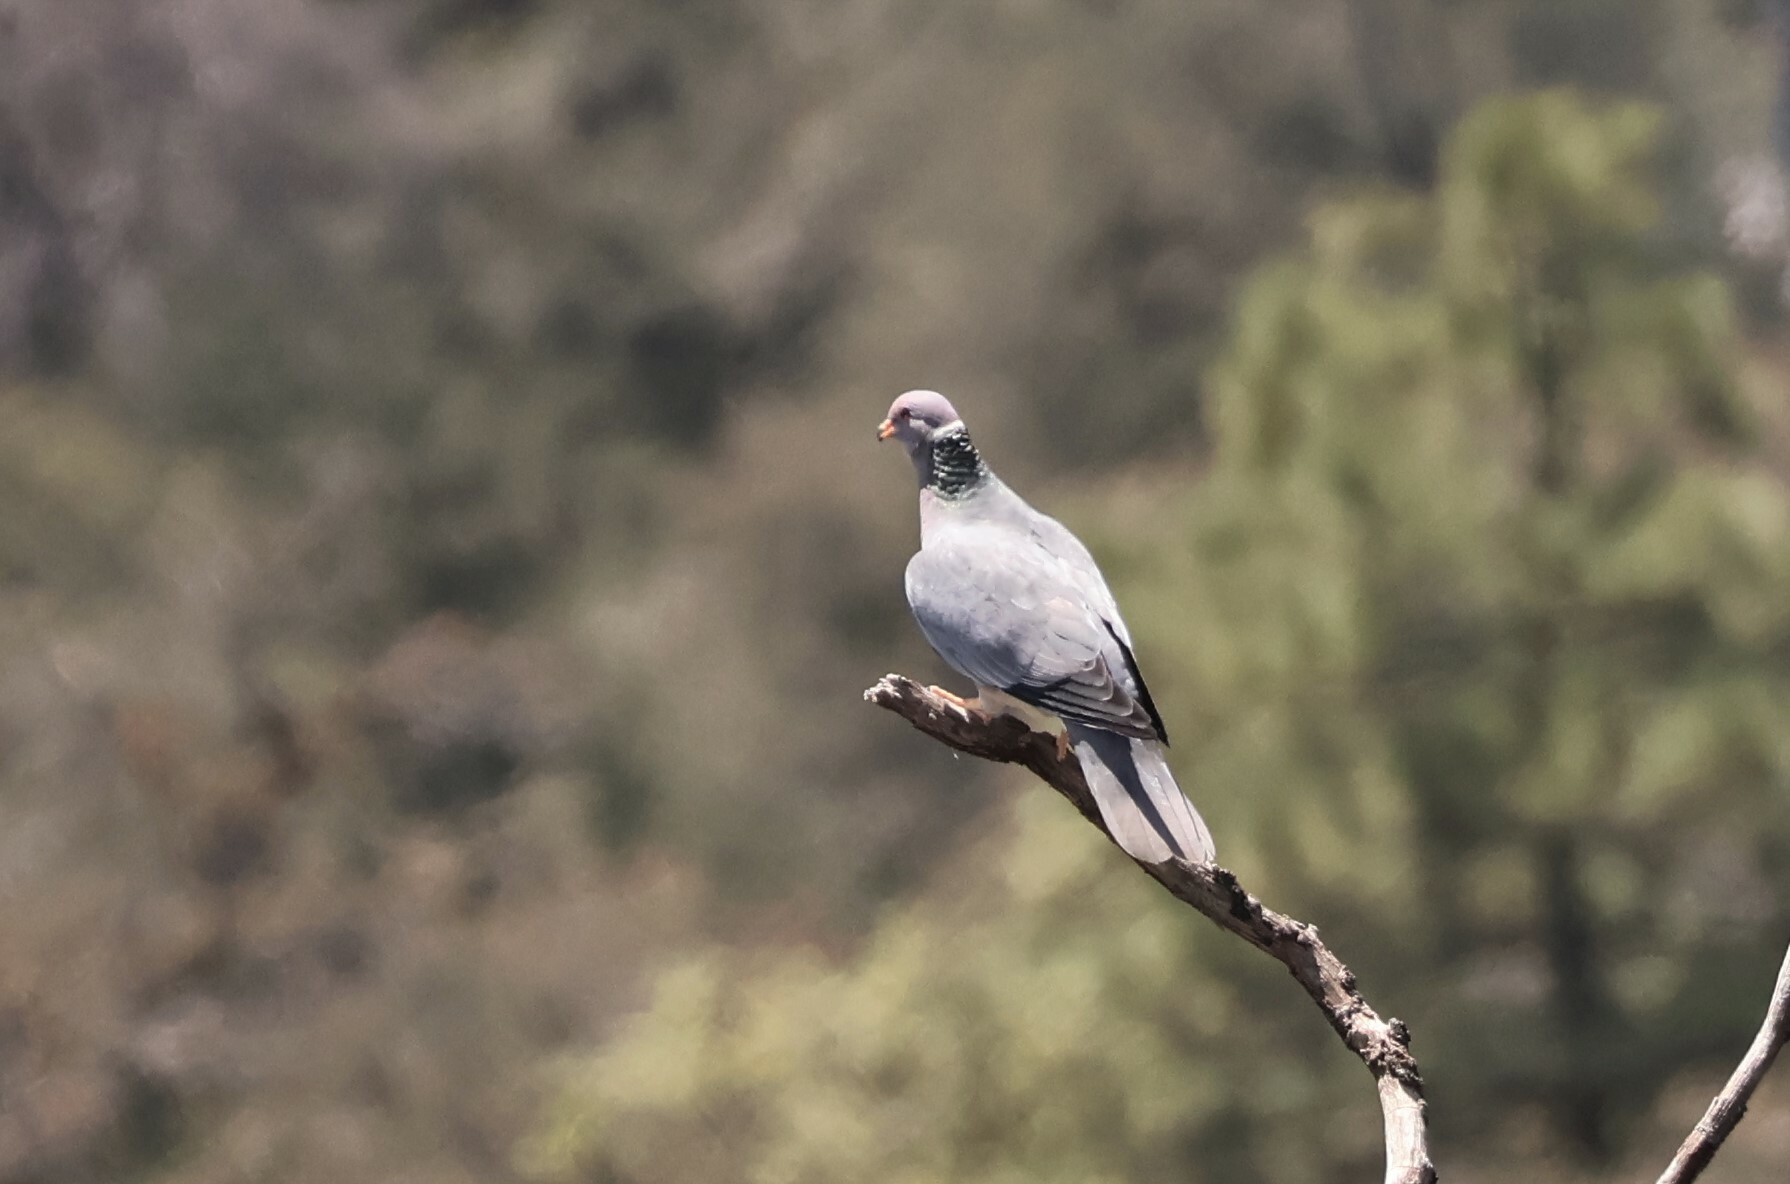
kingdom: Animalia
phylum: Chordata
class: Aves
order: Columbiformes
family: Columbidae
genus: Patagioenas
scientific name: Patagioenas fasciata
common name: Band-tailed pigeon
